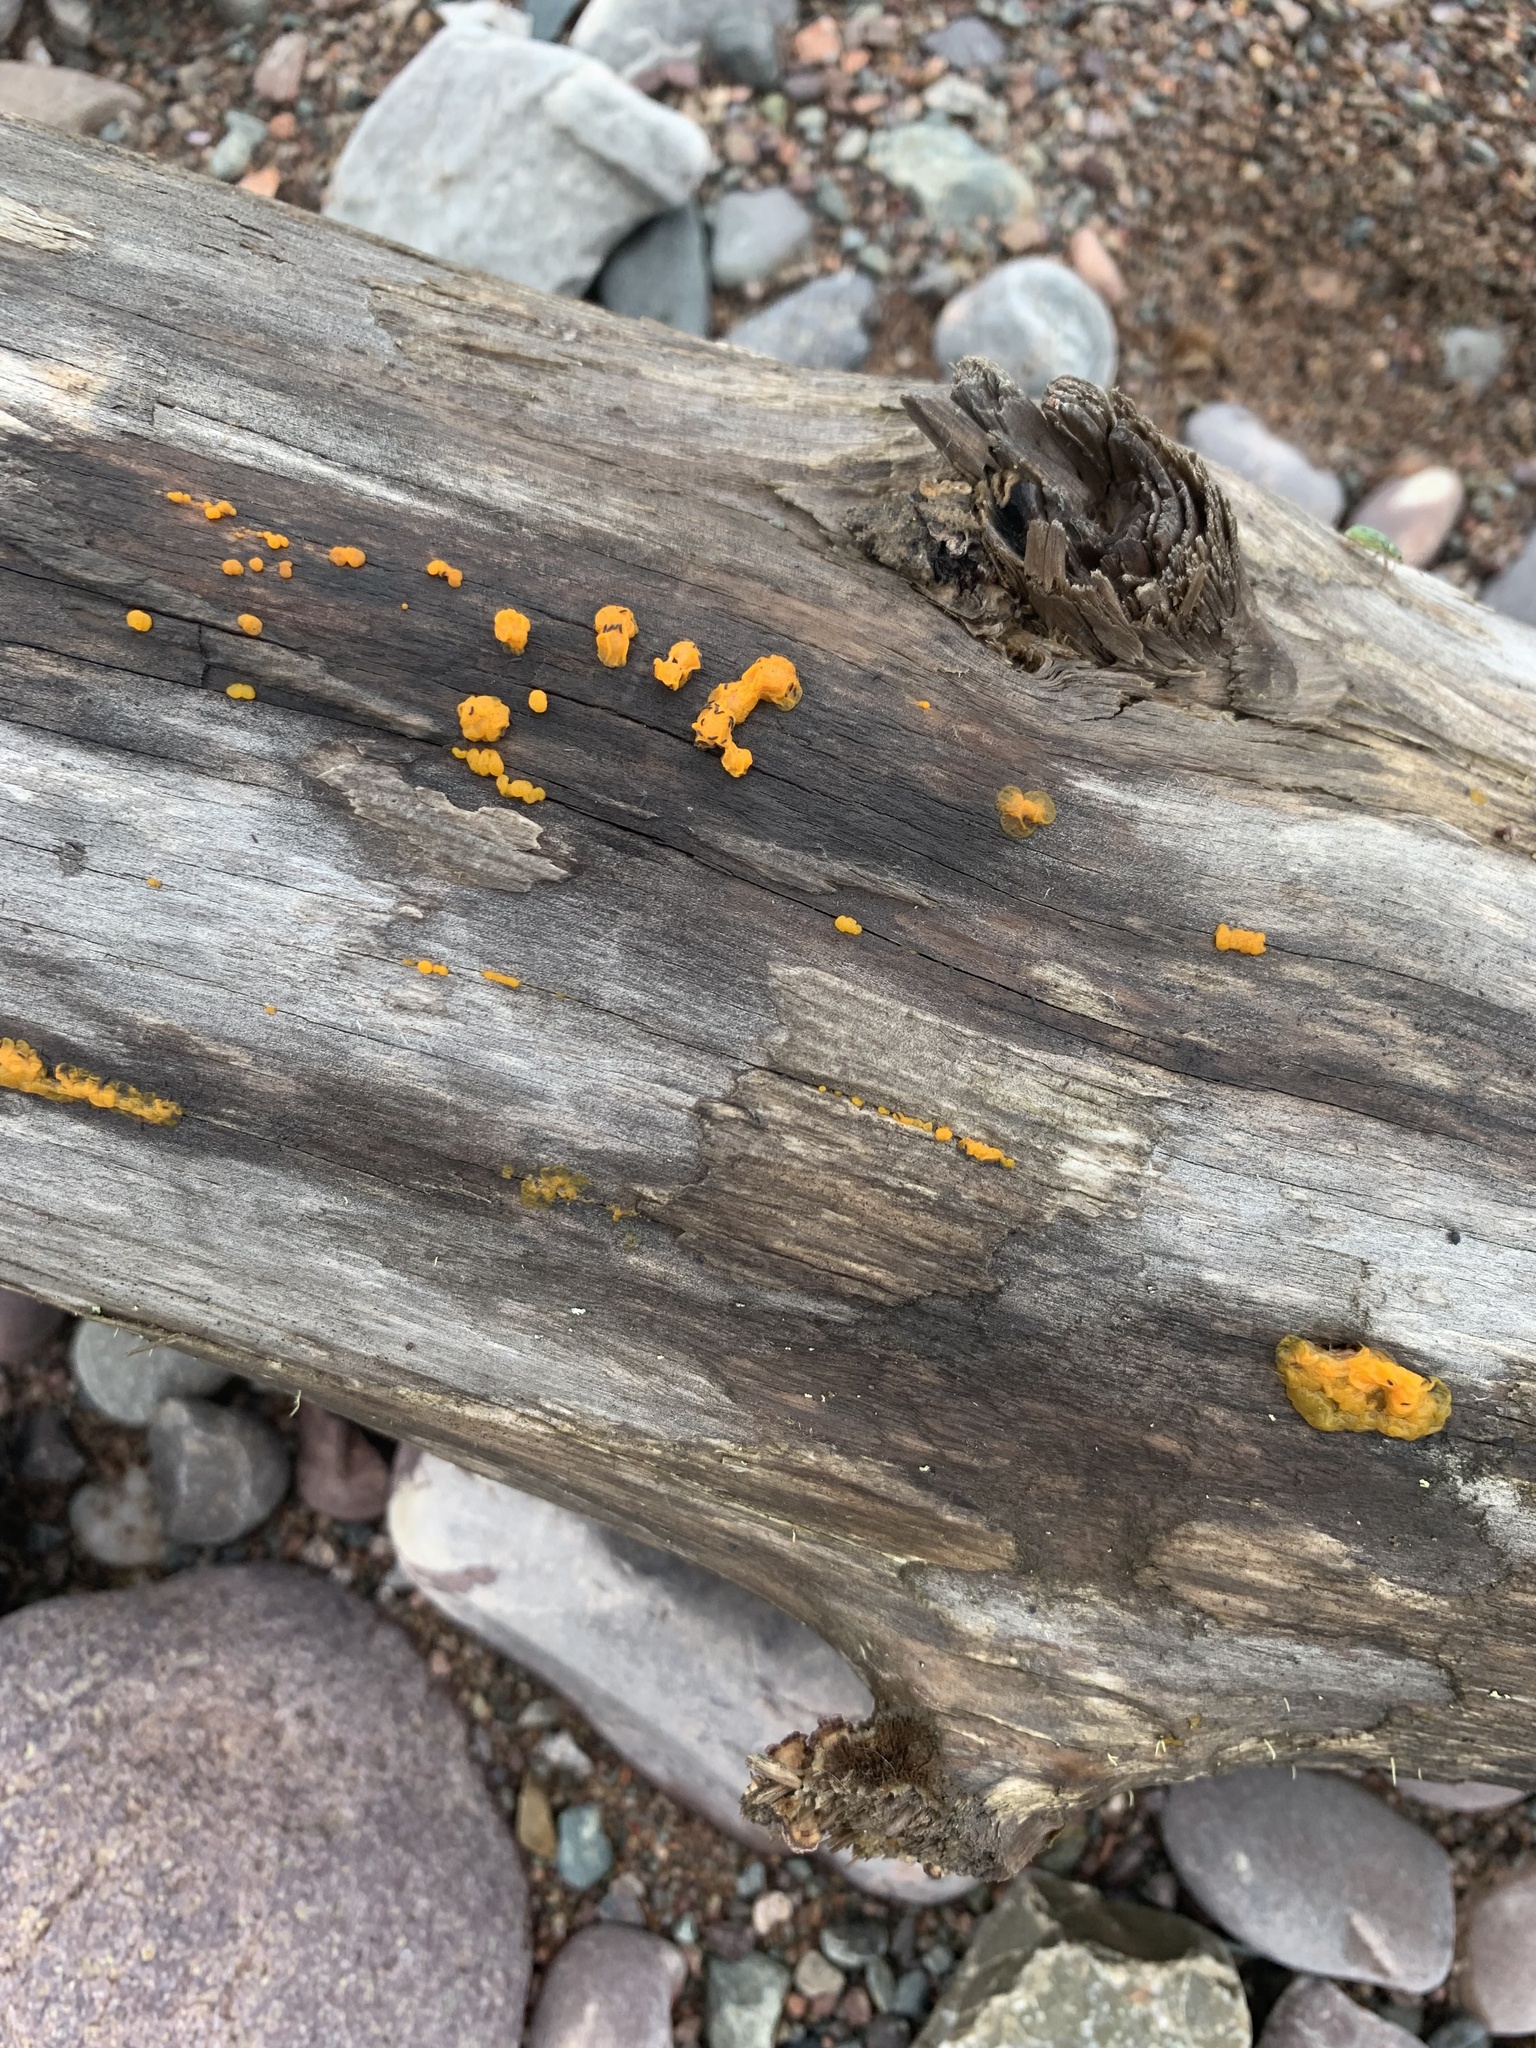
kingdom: Fungi
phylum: Basidiomycota
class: Dacrymycetes
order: Dacrymycetales
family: Dacrymycetaceae
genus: Dacrymyces
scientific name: Dacrymyces chrysospermus
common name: Orange jelly spot
